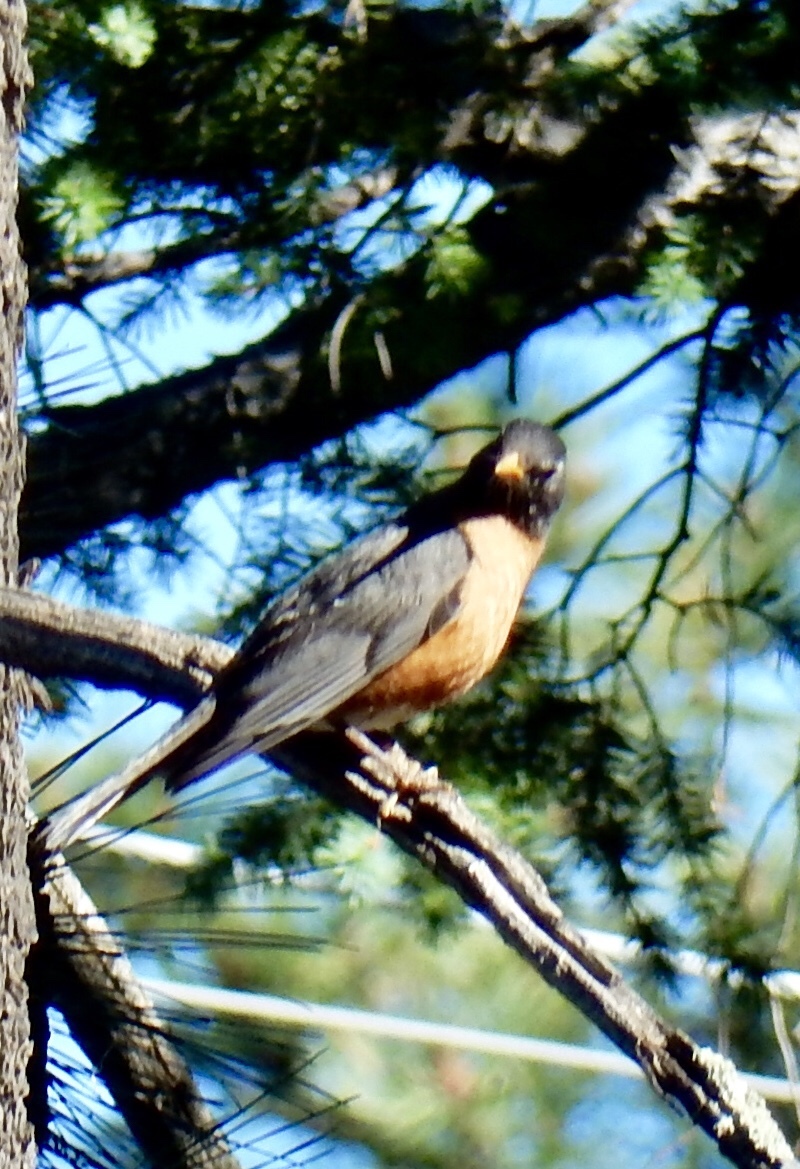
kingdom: Animalia
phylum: Chordata
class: Aves
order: Passeriformes
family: Turdidae
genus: Turdus
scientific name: Turdus migratorius
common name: American robin
